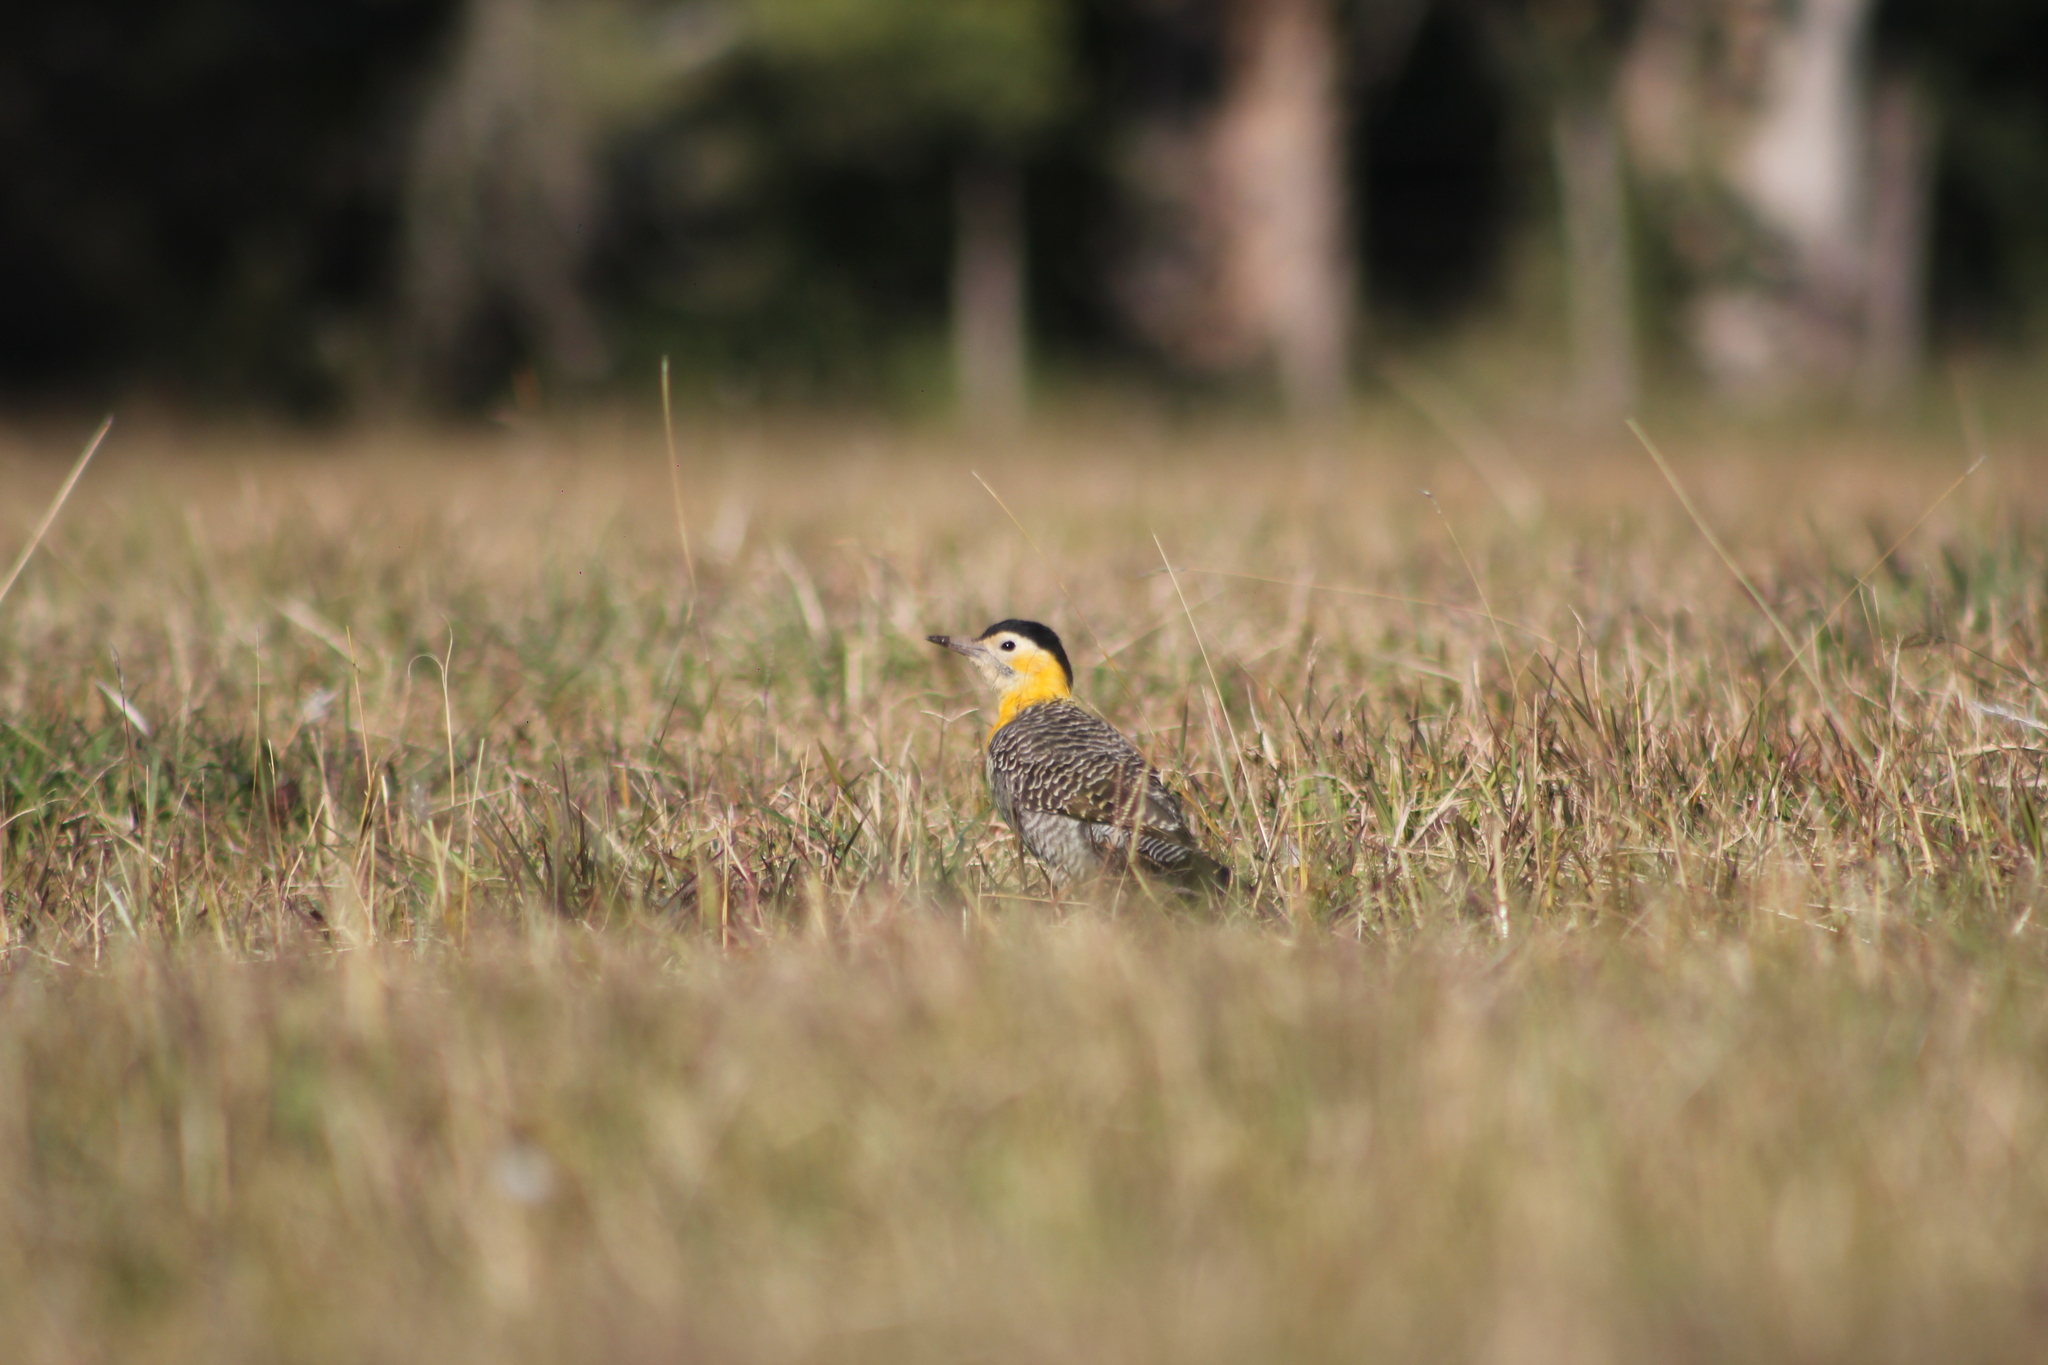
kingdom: Animalia
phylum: Chordata
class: Aves
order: Piciformes
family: Picidae
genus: Colaptes
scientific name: Colaptes campestris
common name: Campo flicker
